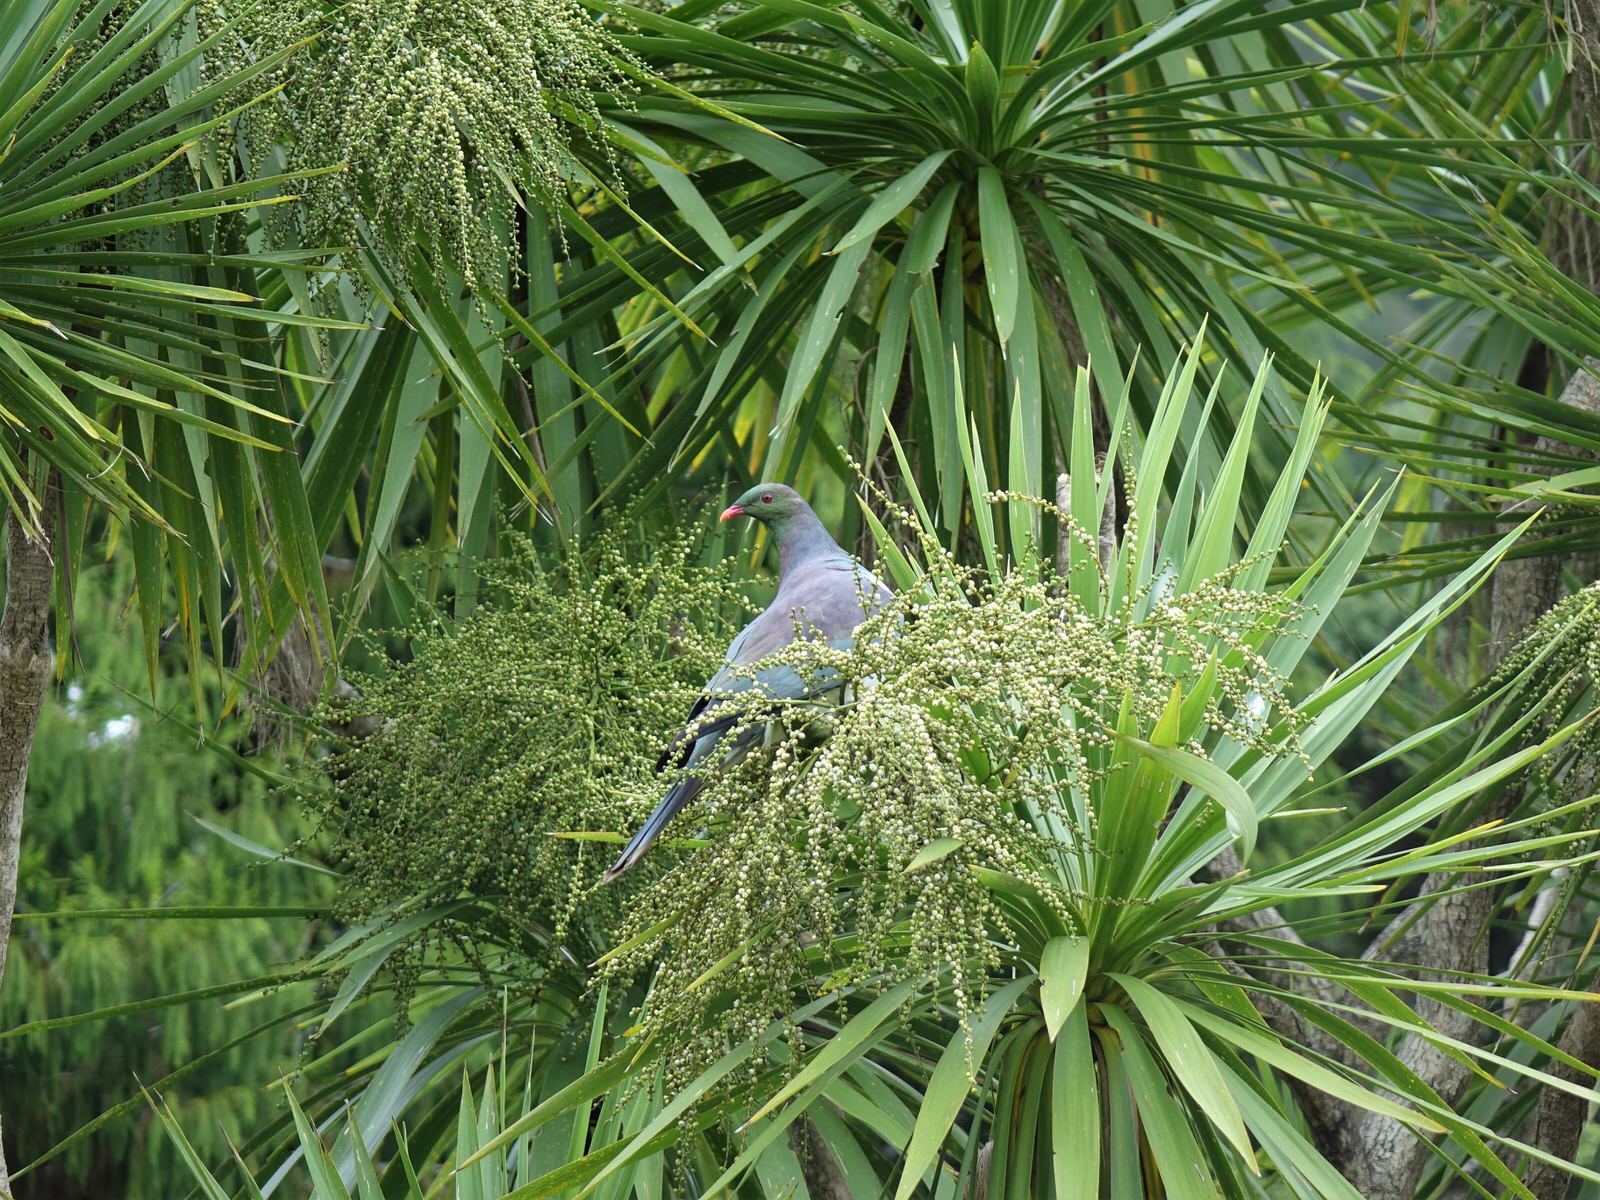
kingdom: Animalia
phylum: Chordata
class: Aves
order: Columbiformes
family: Columbidae
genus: Hemiphaga
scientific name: Hemiphaga novaeseelandiae
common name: New zealand pigeon
